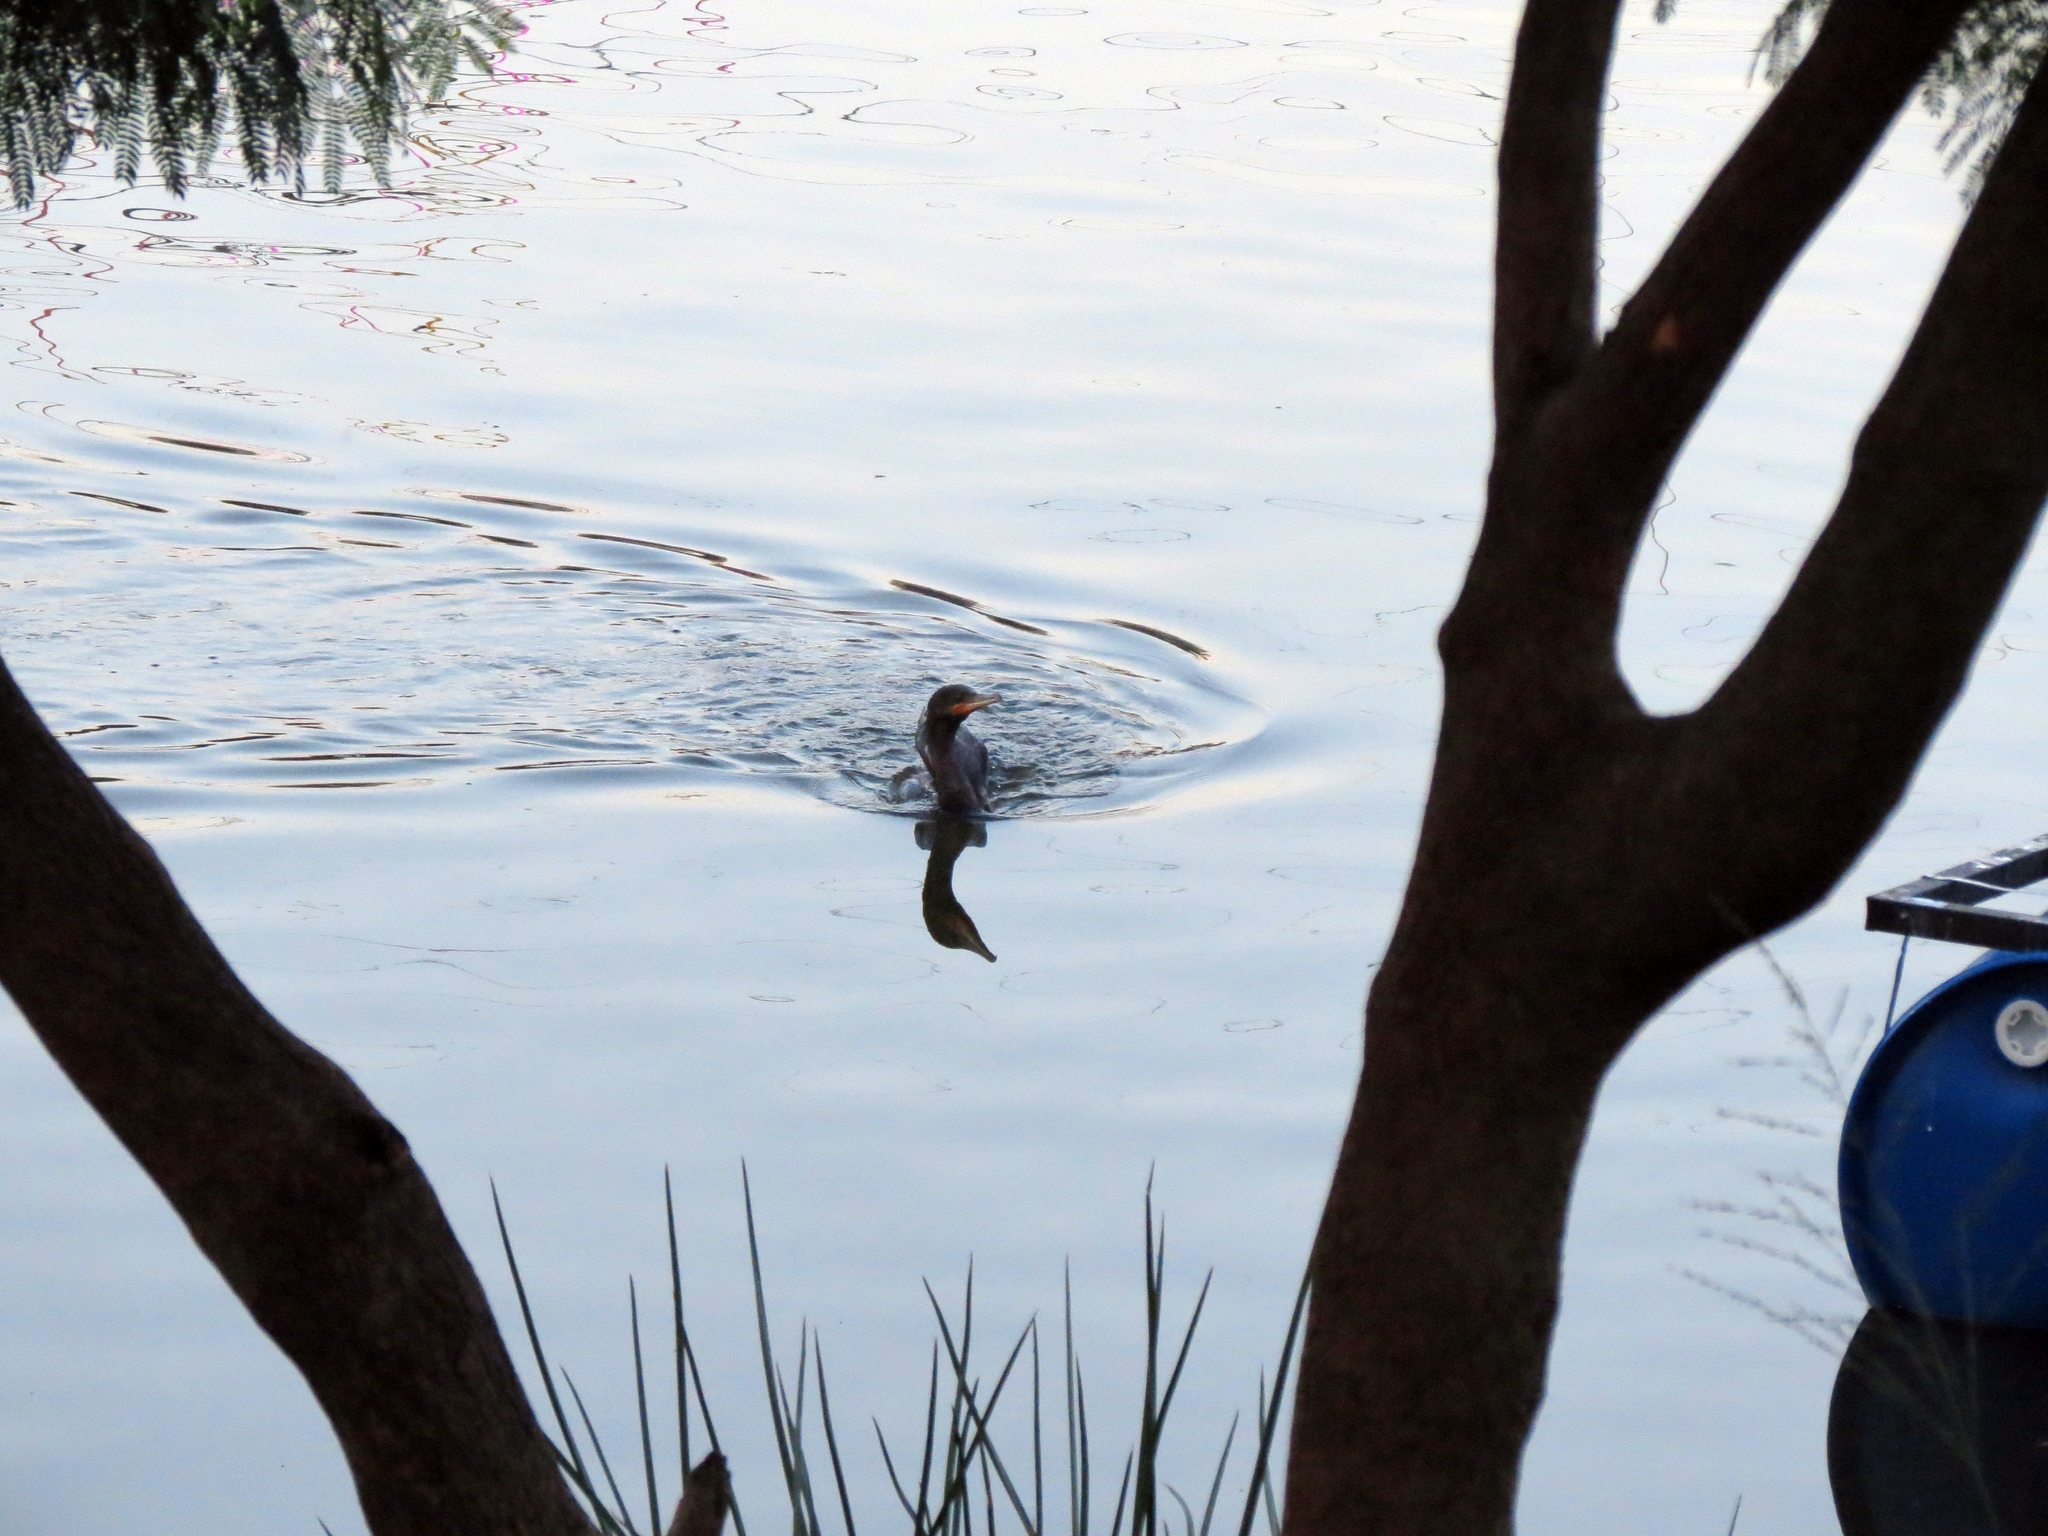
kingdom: Animalia
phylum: Chordata
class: Aves
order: Suliformes
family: Phalacrocoracidae
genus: Phalacrocorax
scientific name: Phalacrocorax brasilianus
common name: Neotropic cormorant
